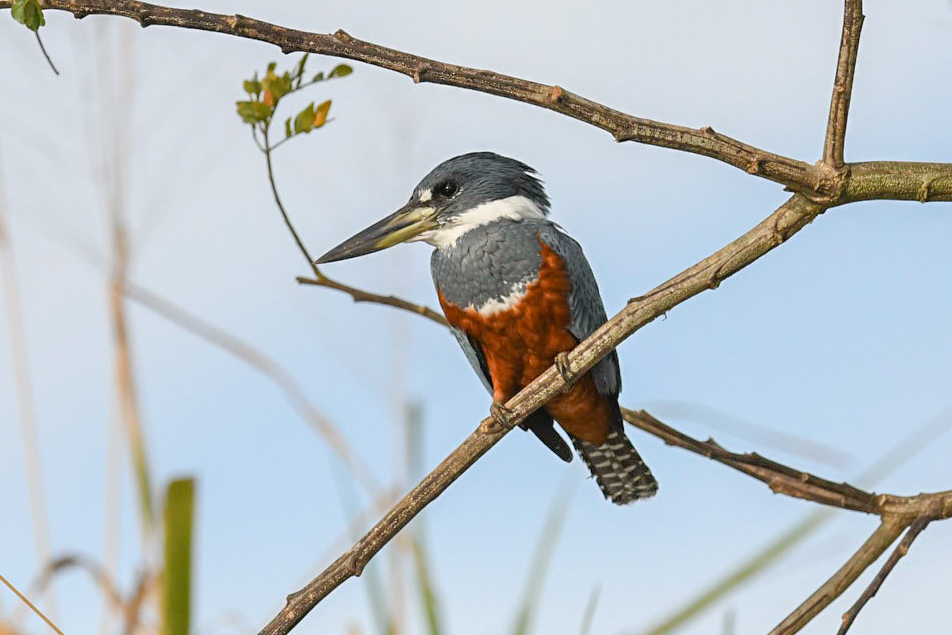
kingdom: Animalia
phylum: Chordata
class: Aves
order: Coraciiformes
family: Alcedinidae
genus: Megaceryle
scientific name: Megaceryle torquata
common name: Ringed kingfisher
